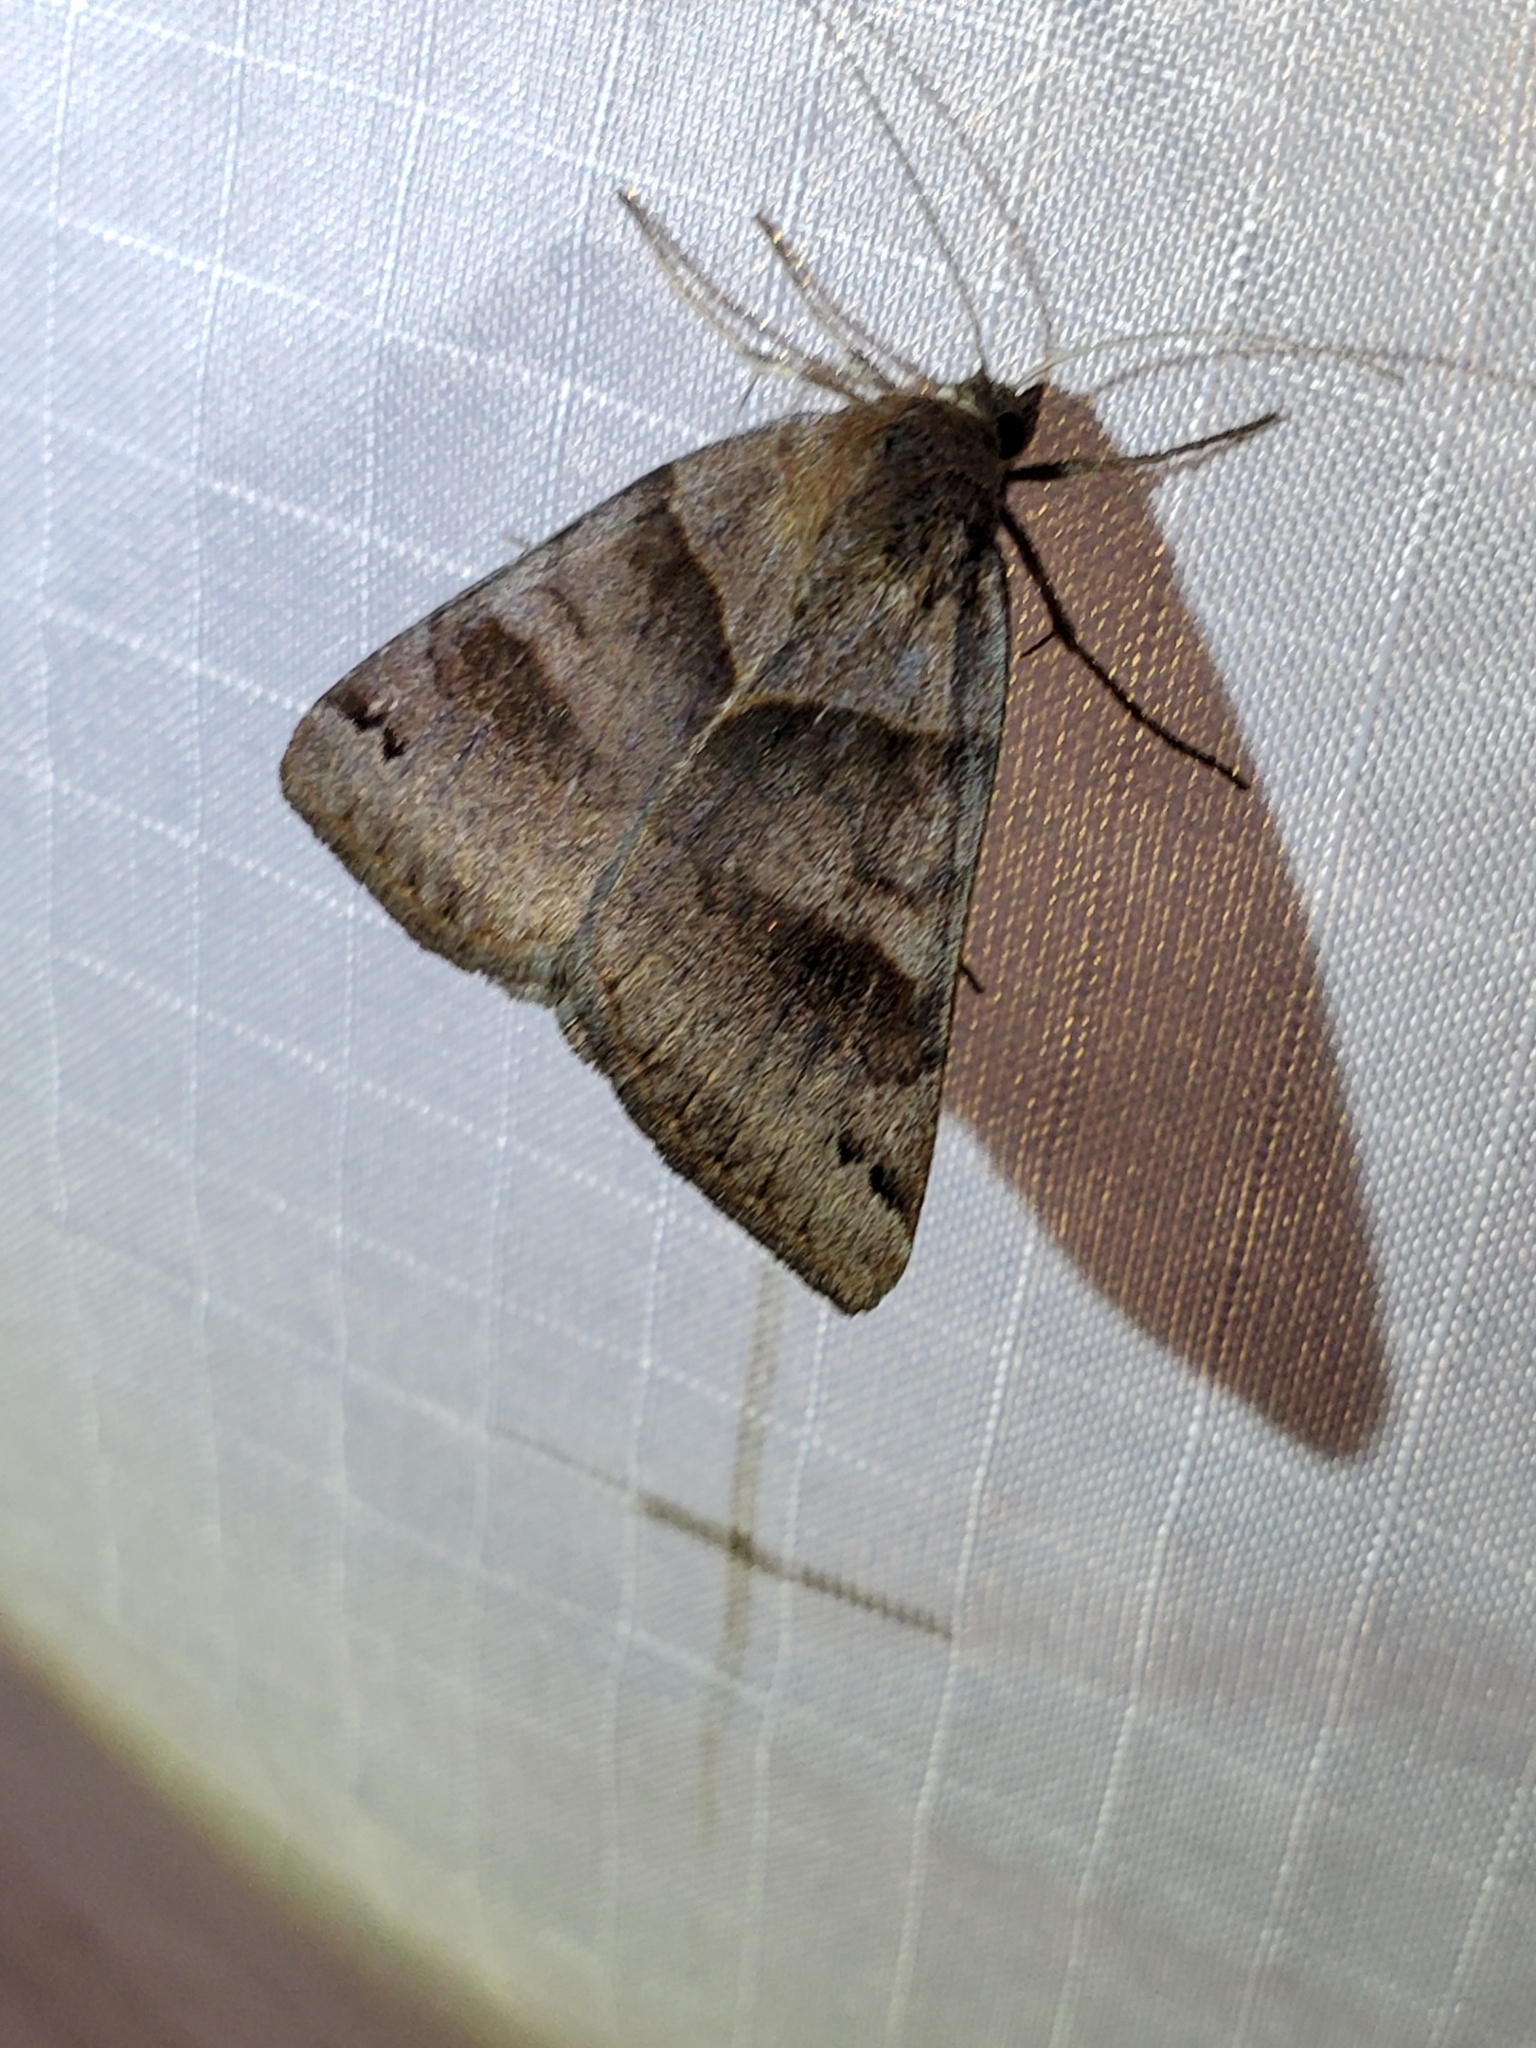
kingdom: Animalia
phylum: Arthropoda
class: Insecta
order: Lepidoptera
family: Erebidae
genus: Caenurgina
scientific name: Caenurgina crassiuscula
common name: Double-barred
